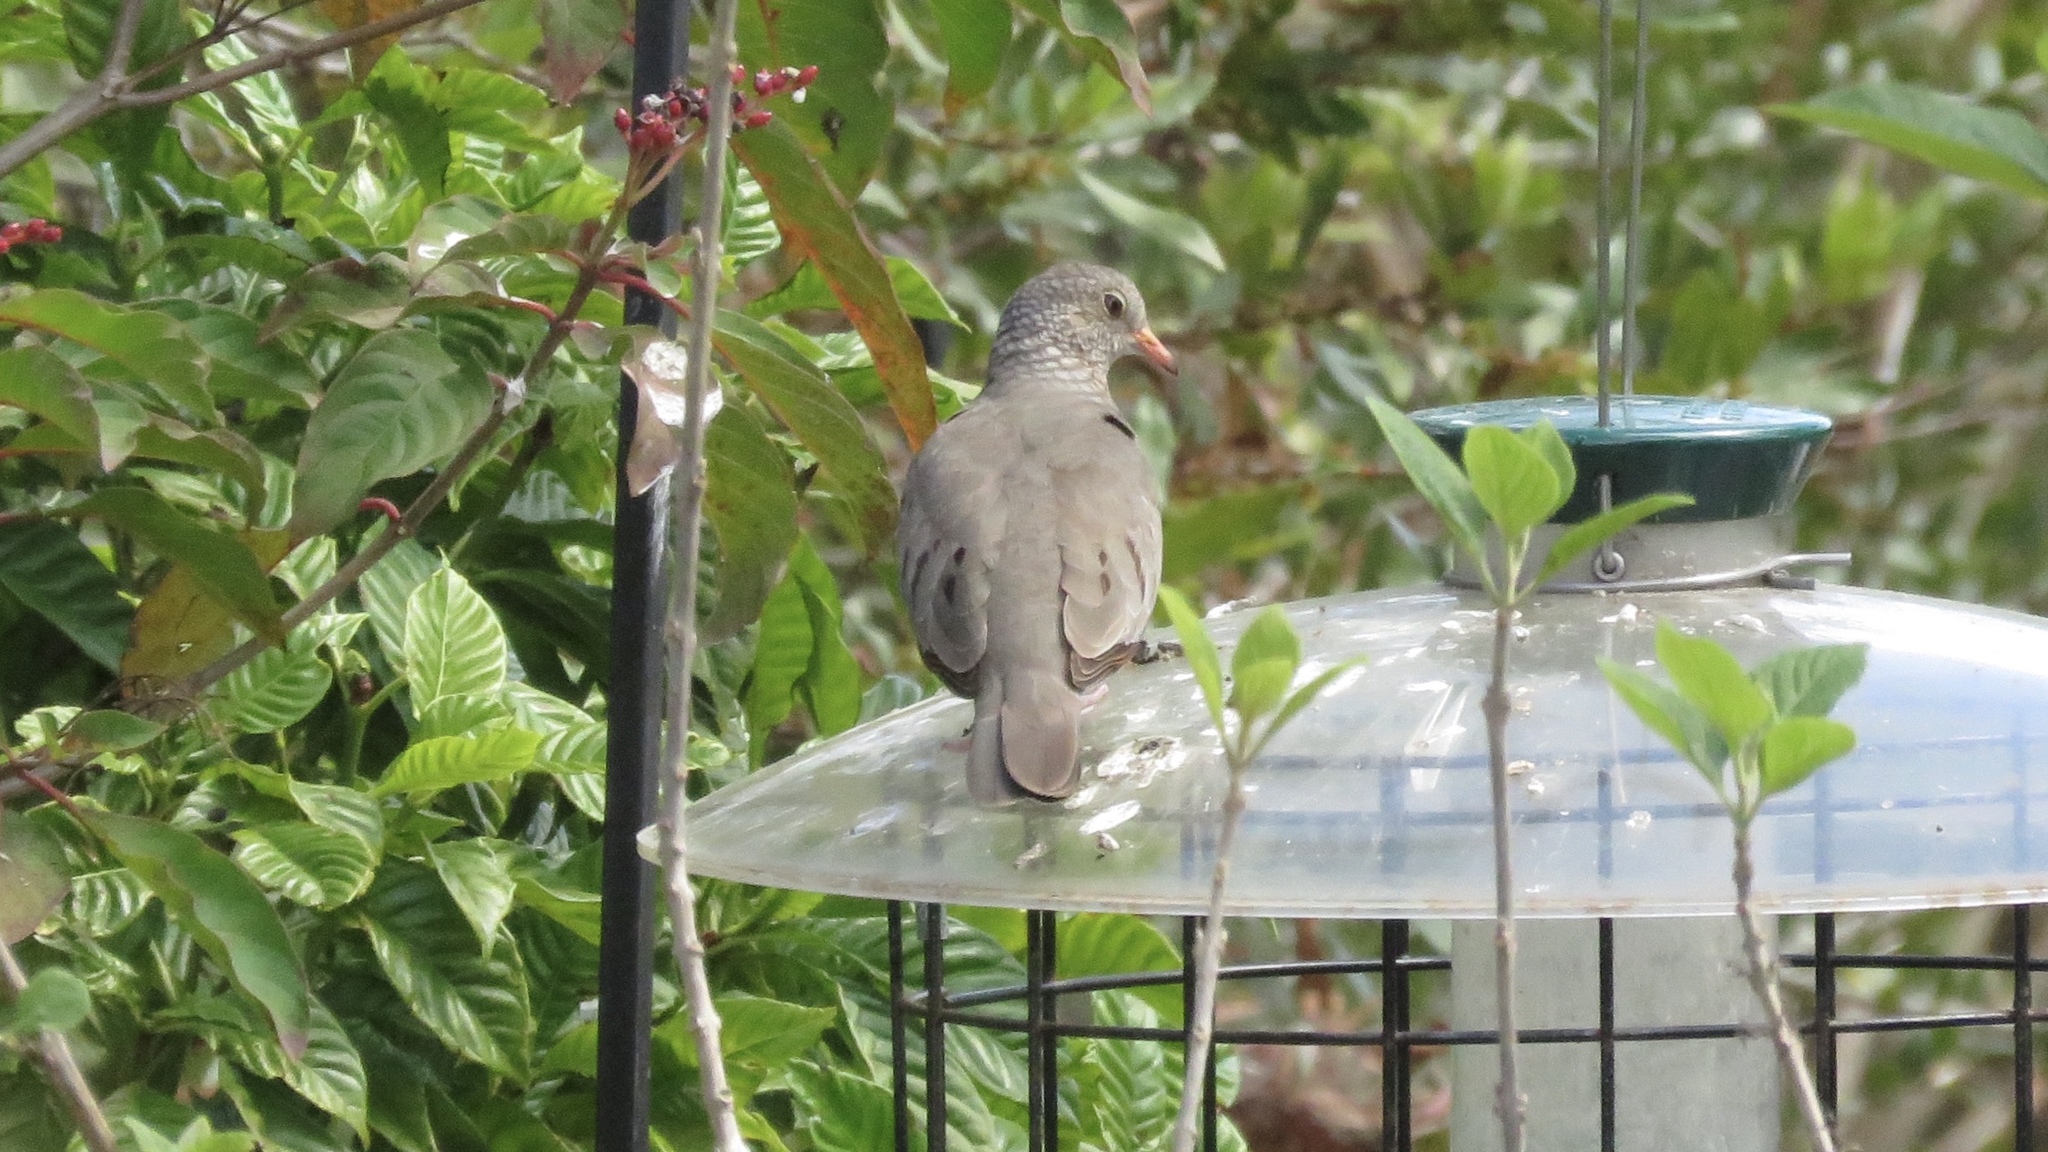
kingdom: Animalia
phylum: Chordata
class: Aves
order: Columbiformes
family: Columbidae
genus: Columbina
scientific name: Columbina passerina
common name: Common ground-dove
